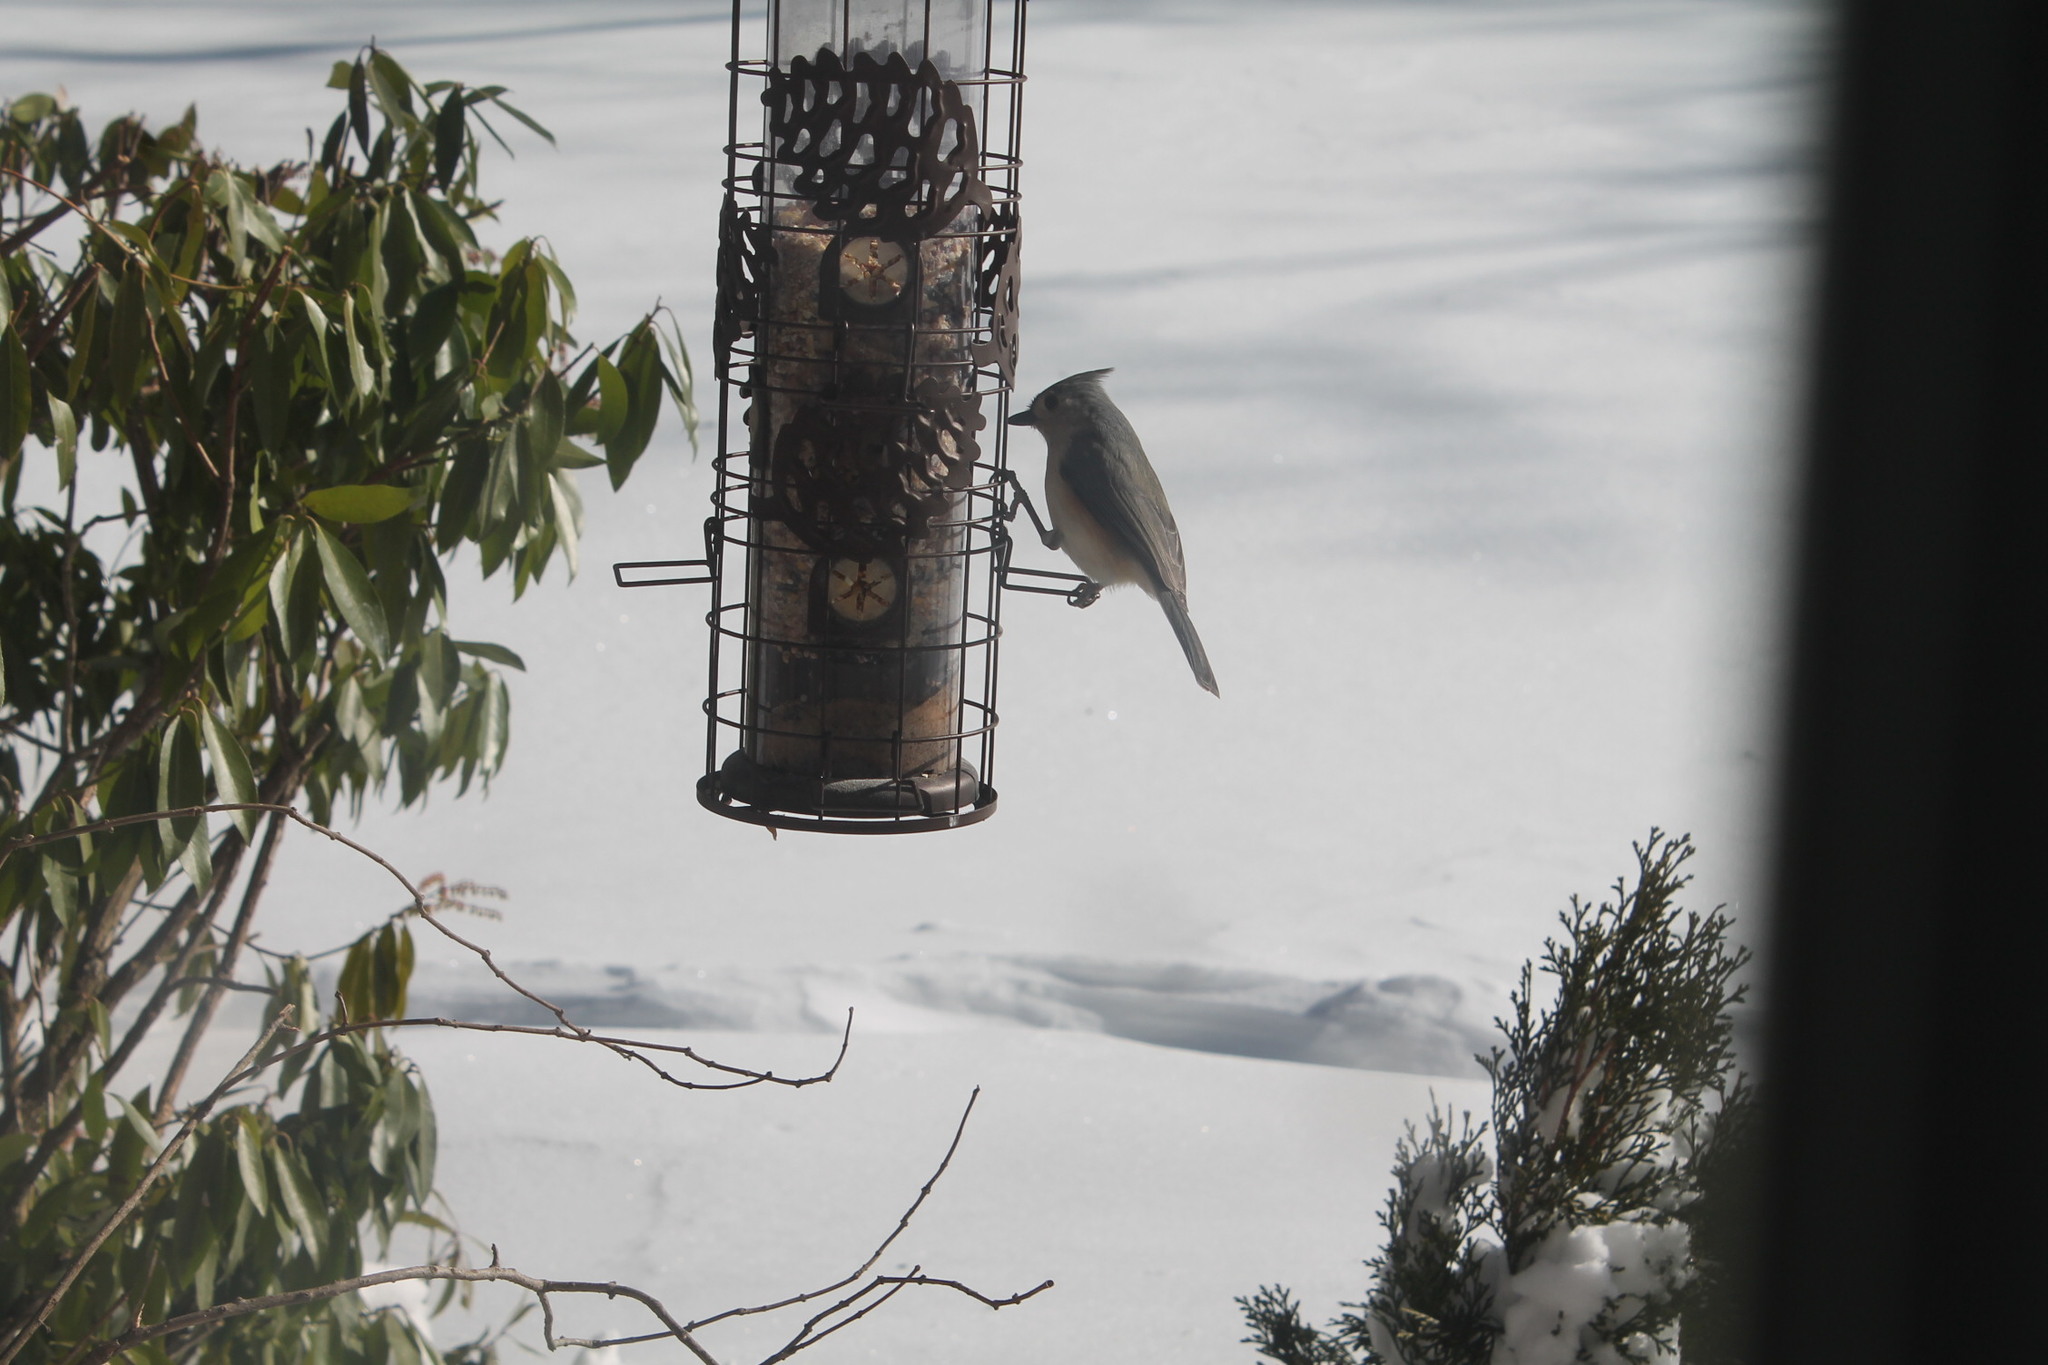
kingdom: Animalia
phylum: Chordata
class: Aves
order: Passeriformes
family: Paridae
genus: Baeolophus
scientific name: Baeolophus bicolor
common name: Tufted titmouse
